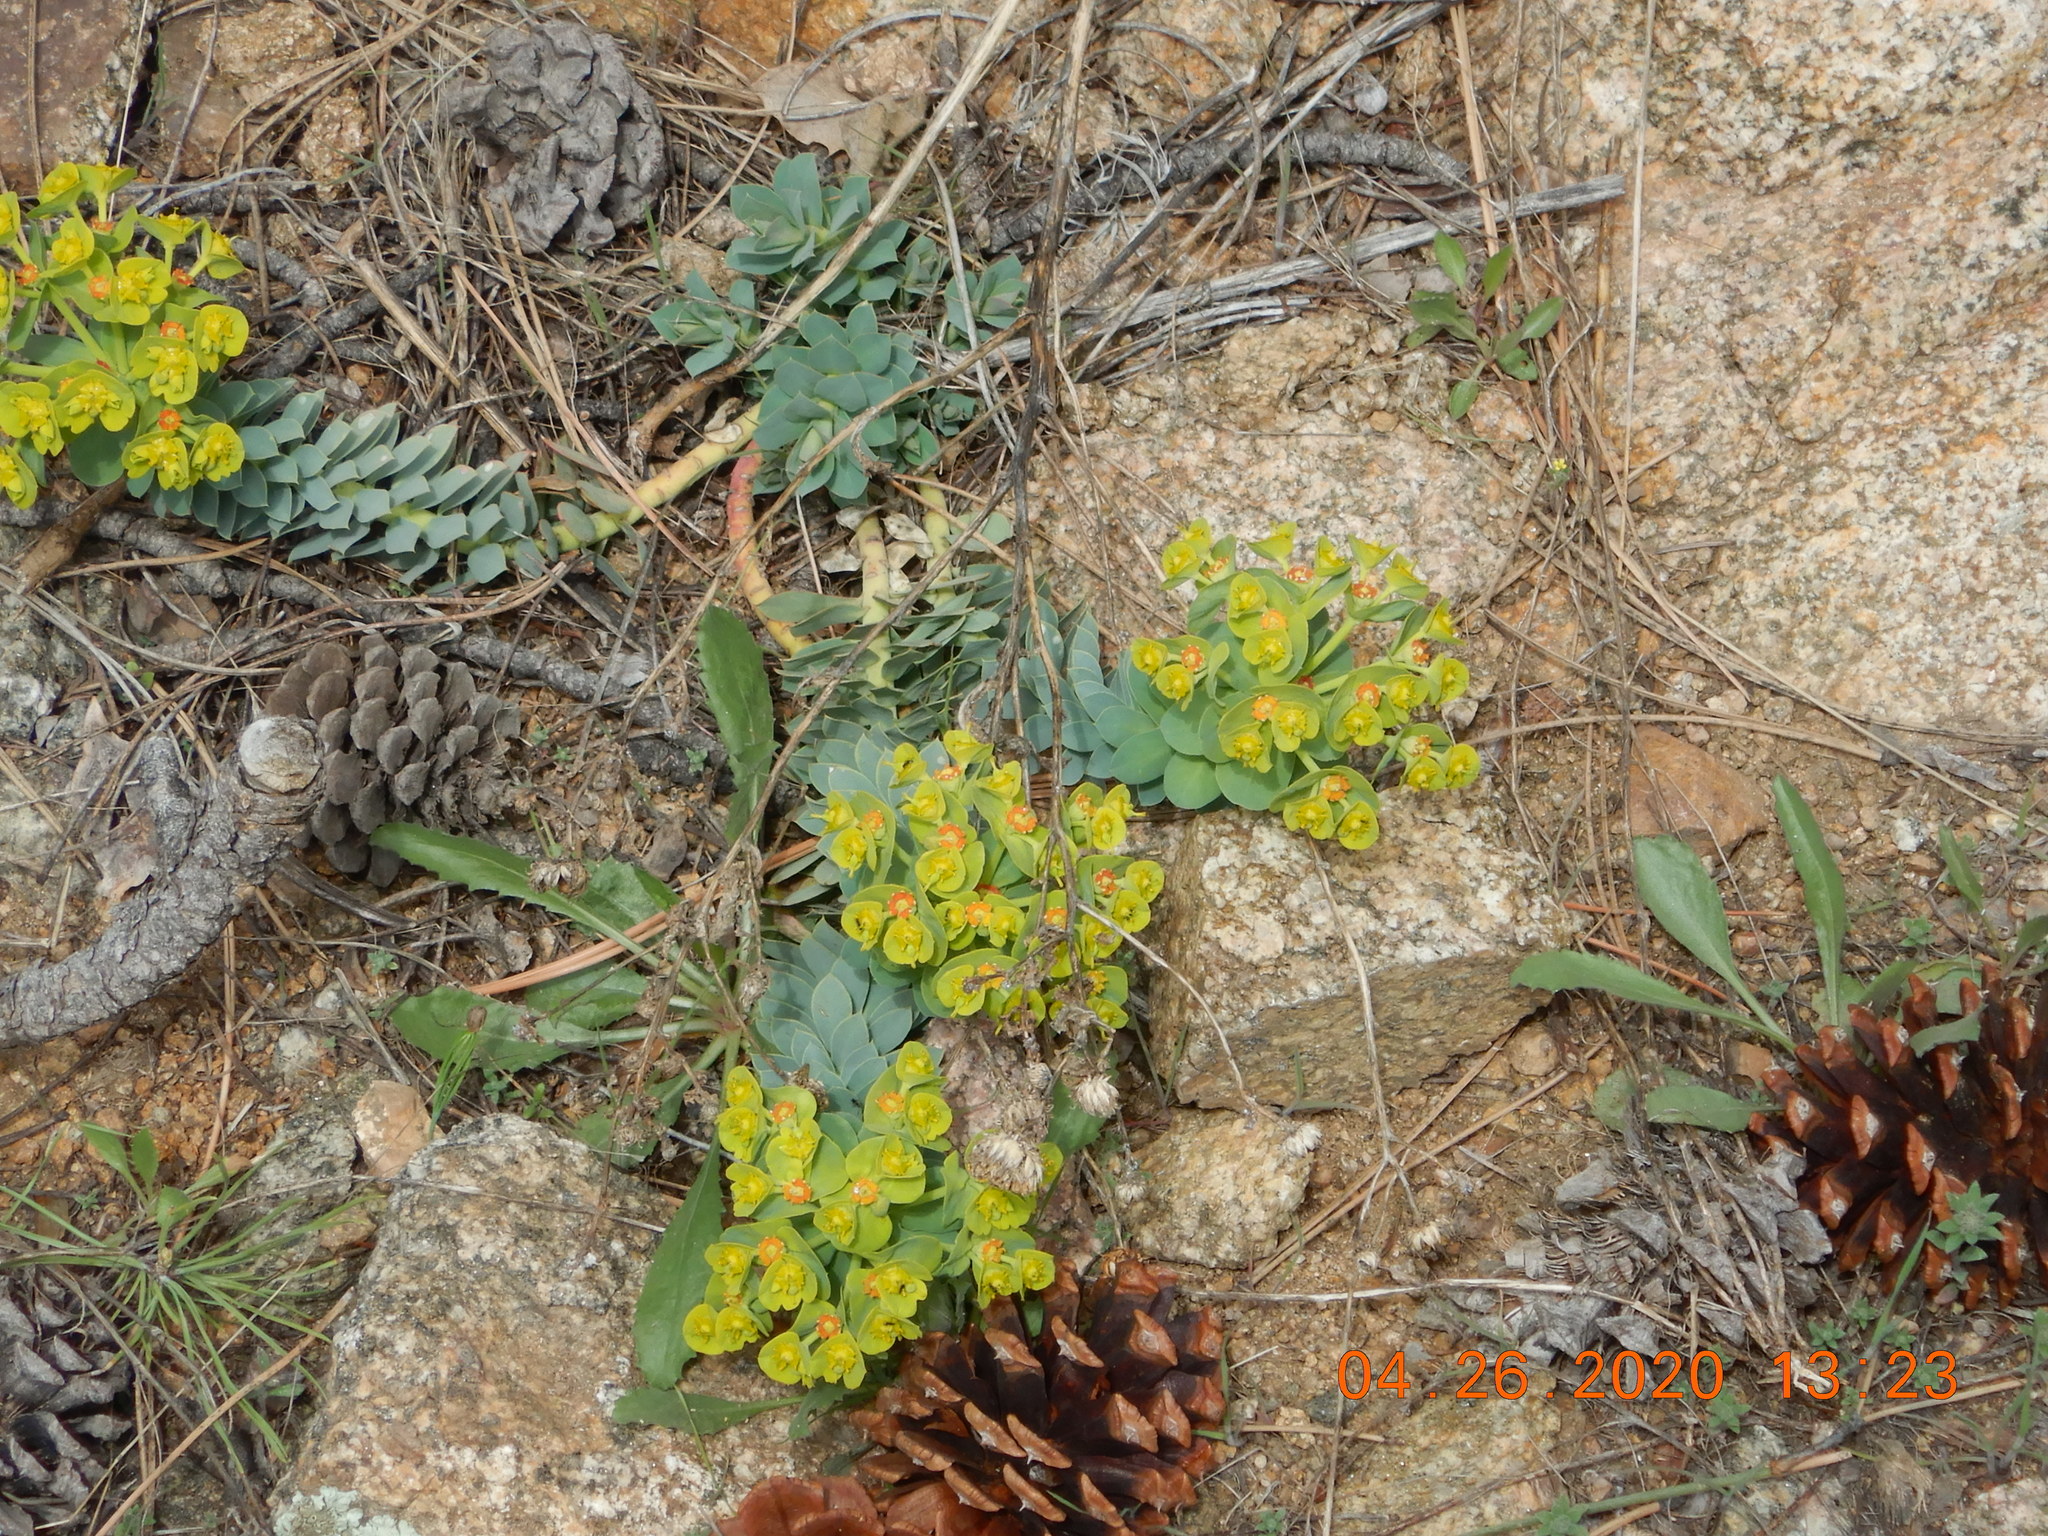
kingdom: Plantae
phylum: Tracheophyta
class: Magnoliopsida
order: Malpighiales
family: Euphorbiaceae
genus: Euphorbia
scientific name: Euphorbia myrsinites
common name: Myrtle spurge
